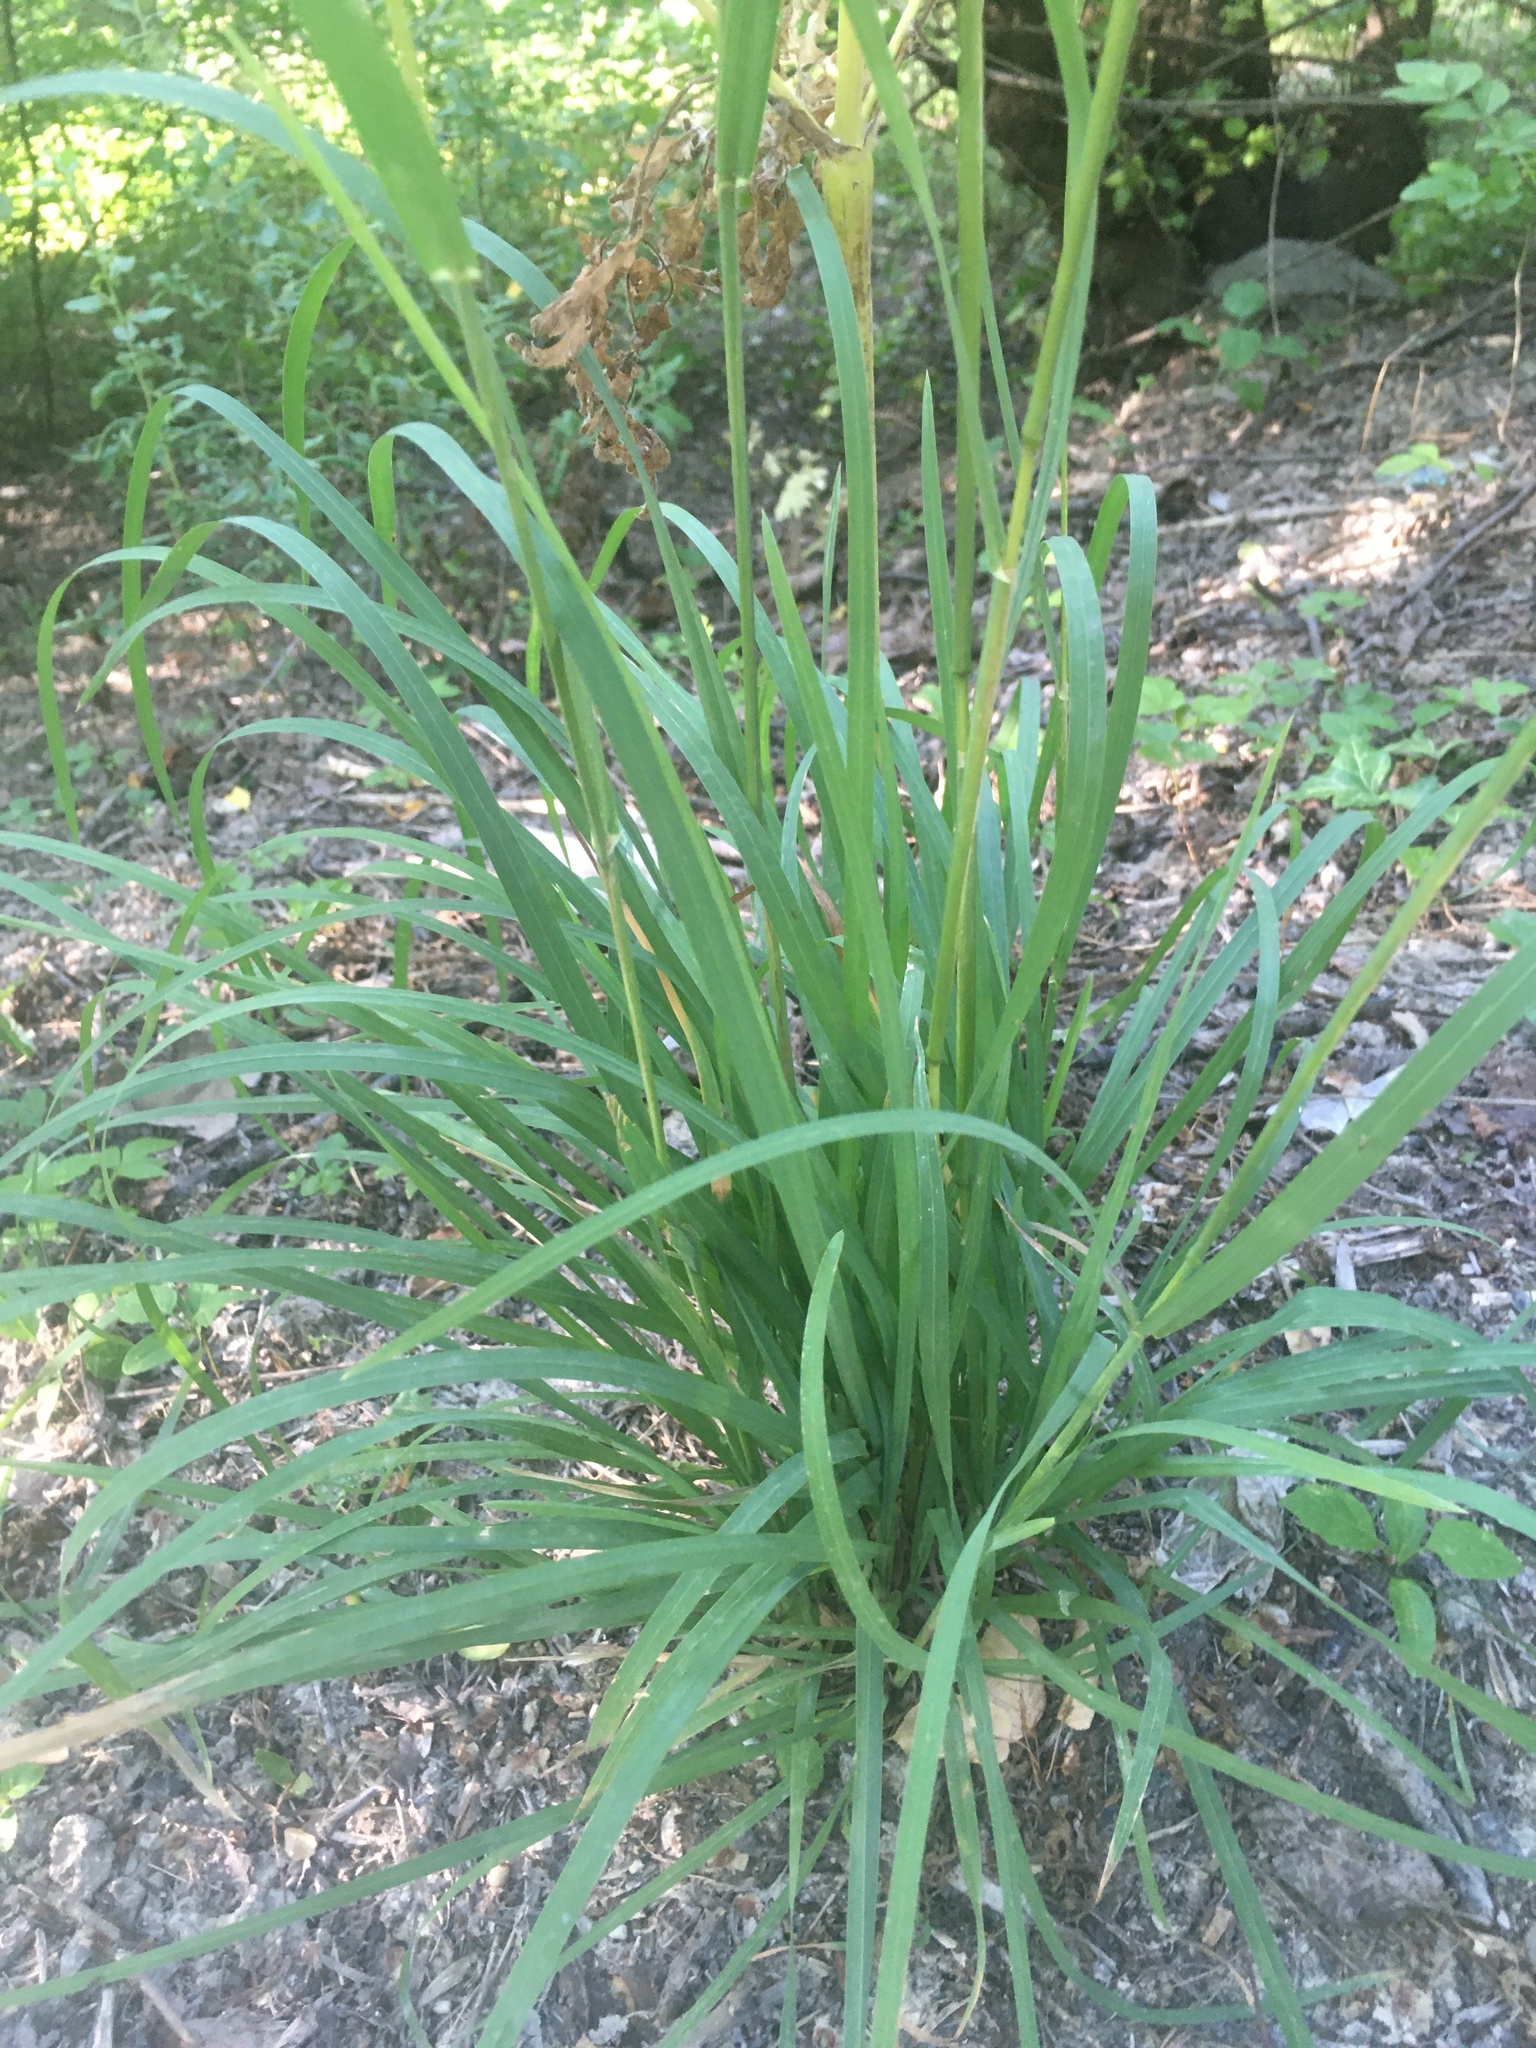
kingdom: Plantae
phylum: Tracheophyta
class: Liliopsida
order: Poales
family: Poaceae
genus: Dactylis
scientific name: Dactylis glomerata
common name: Orchardgrass
